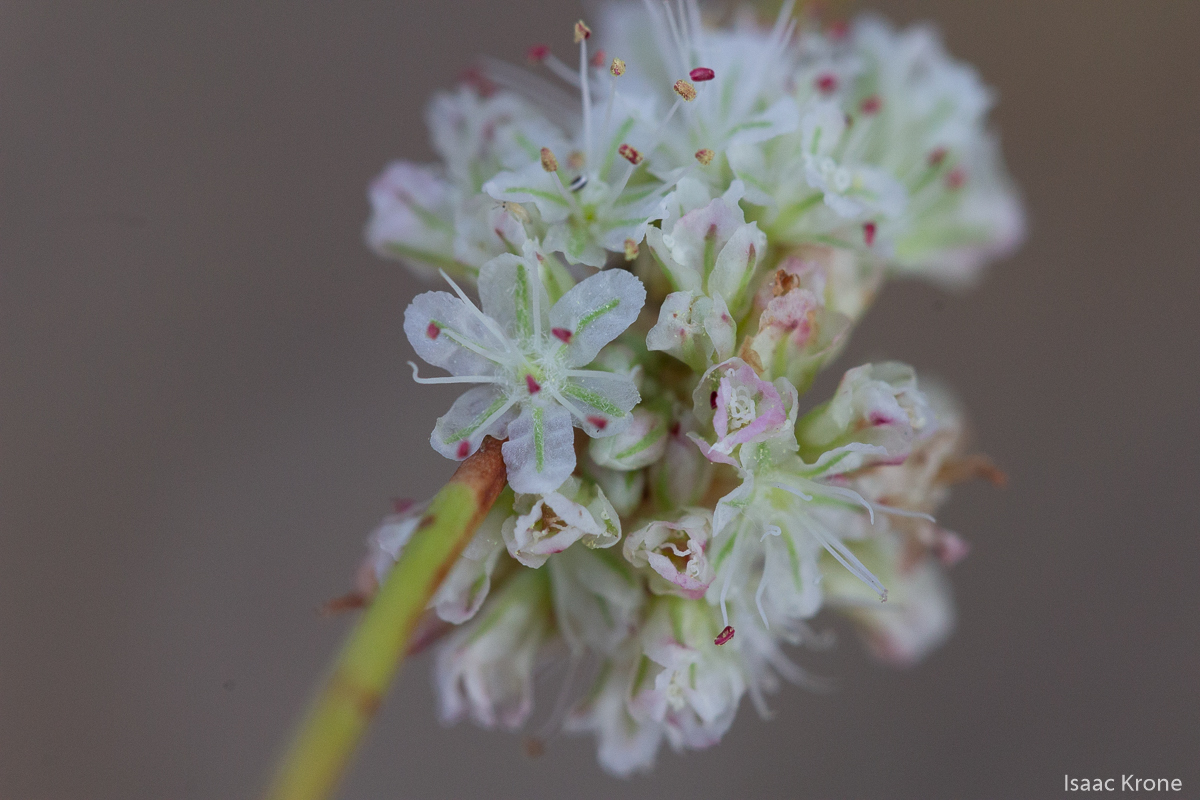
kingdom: Plantae
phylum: Tracheophyta
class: Magnoliopsida
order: Caryophyllales
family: Polygonaceae
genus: Eriogonum
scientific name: Eriogonum nudum
